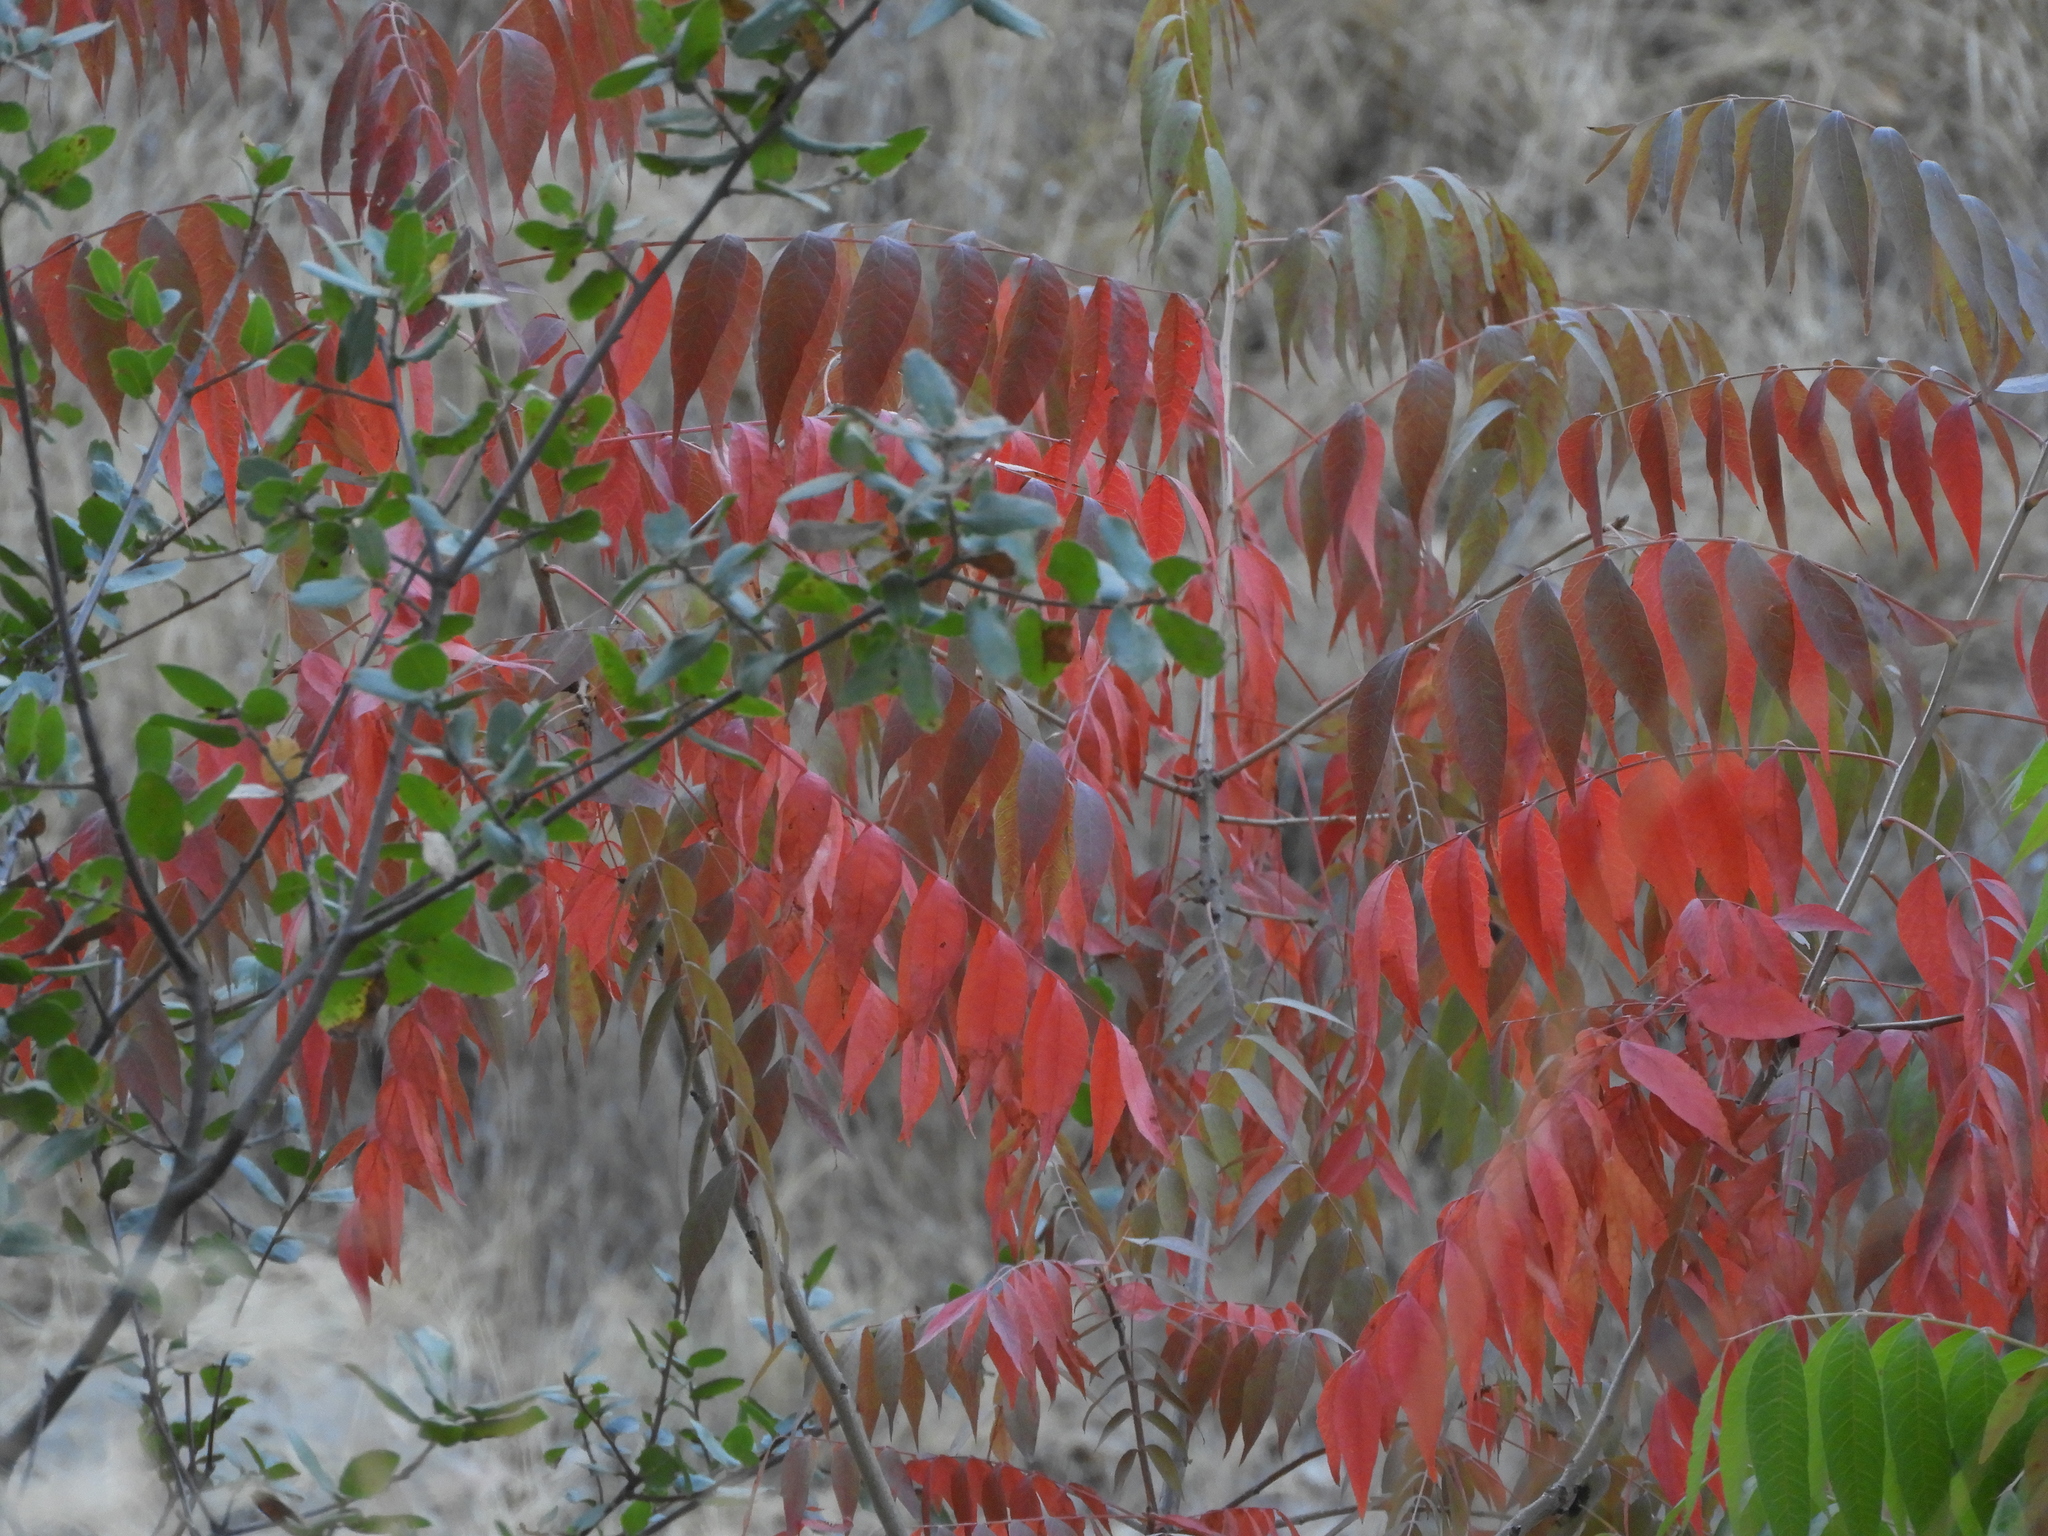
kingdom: Plantae
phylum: Tracheophyta
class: Magnoliopsida
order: Sapindales
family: Simaroubaceae
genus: Ailanthus
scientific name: Ailanthus altissima
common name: Tree-of-heaven
